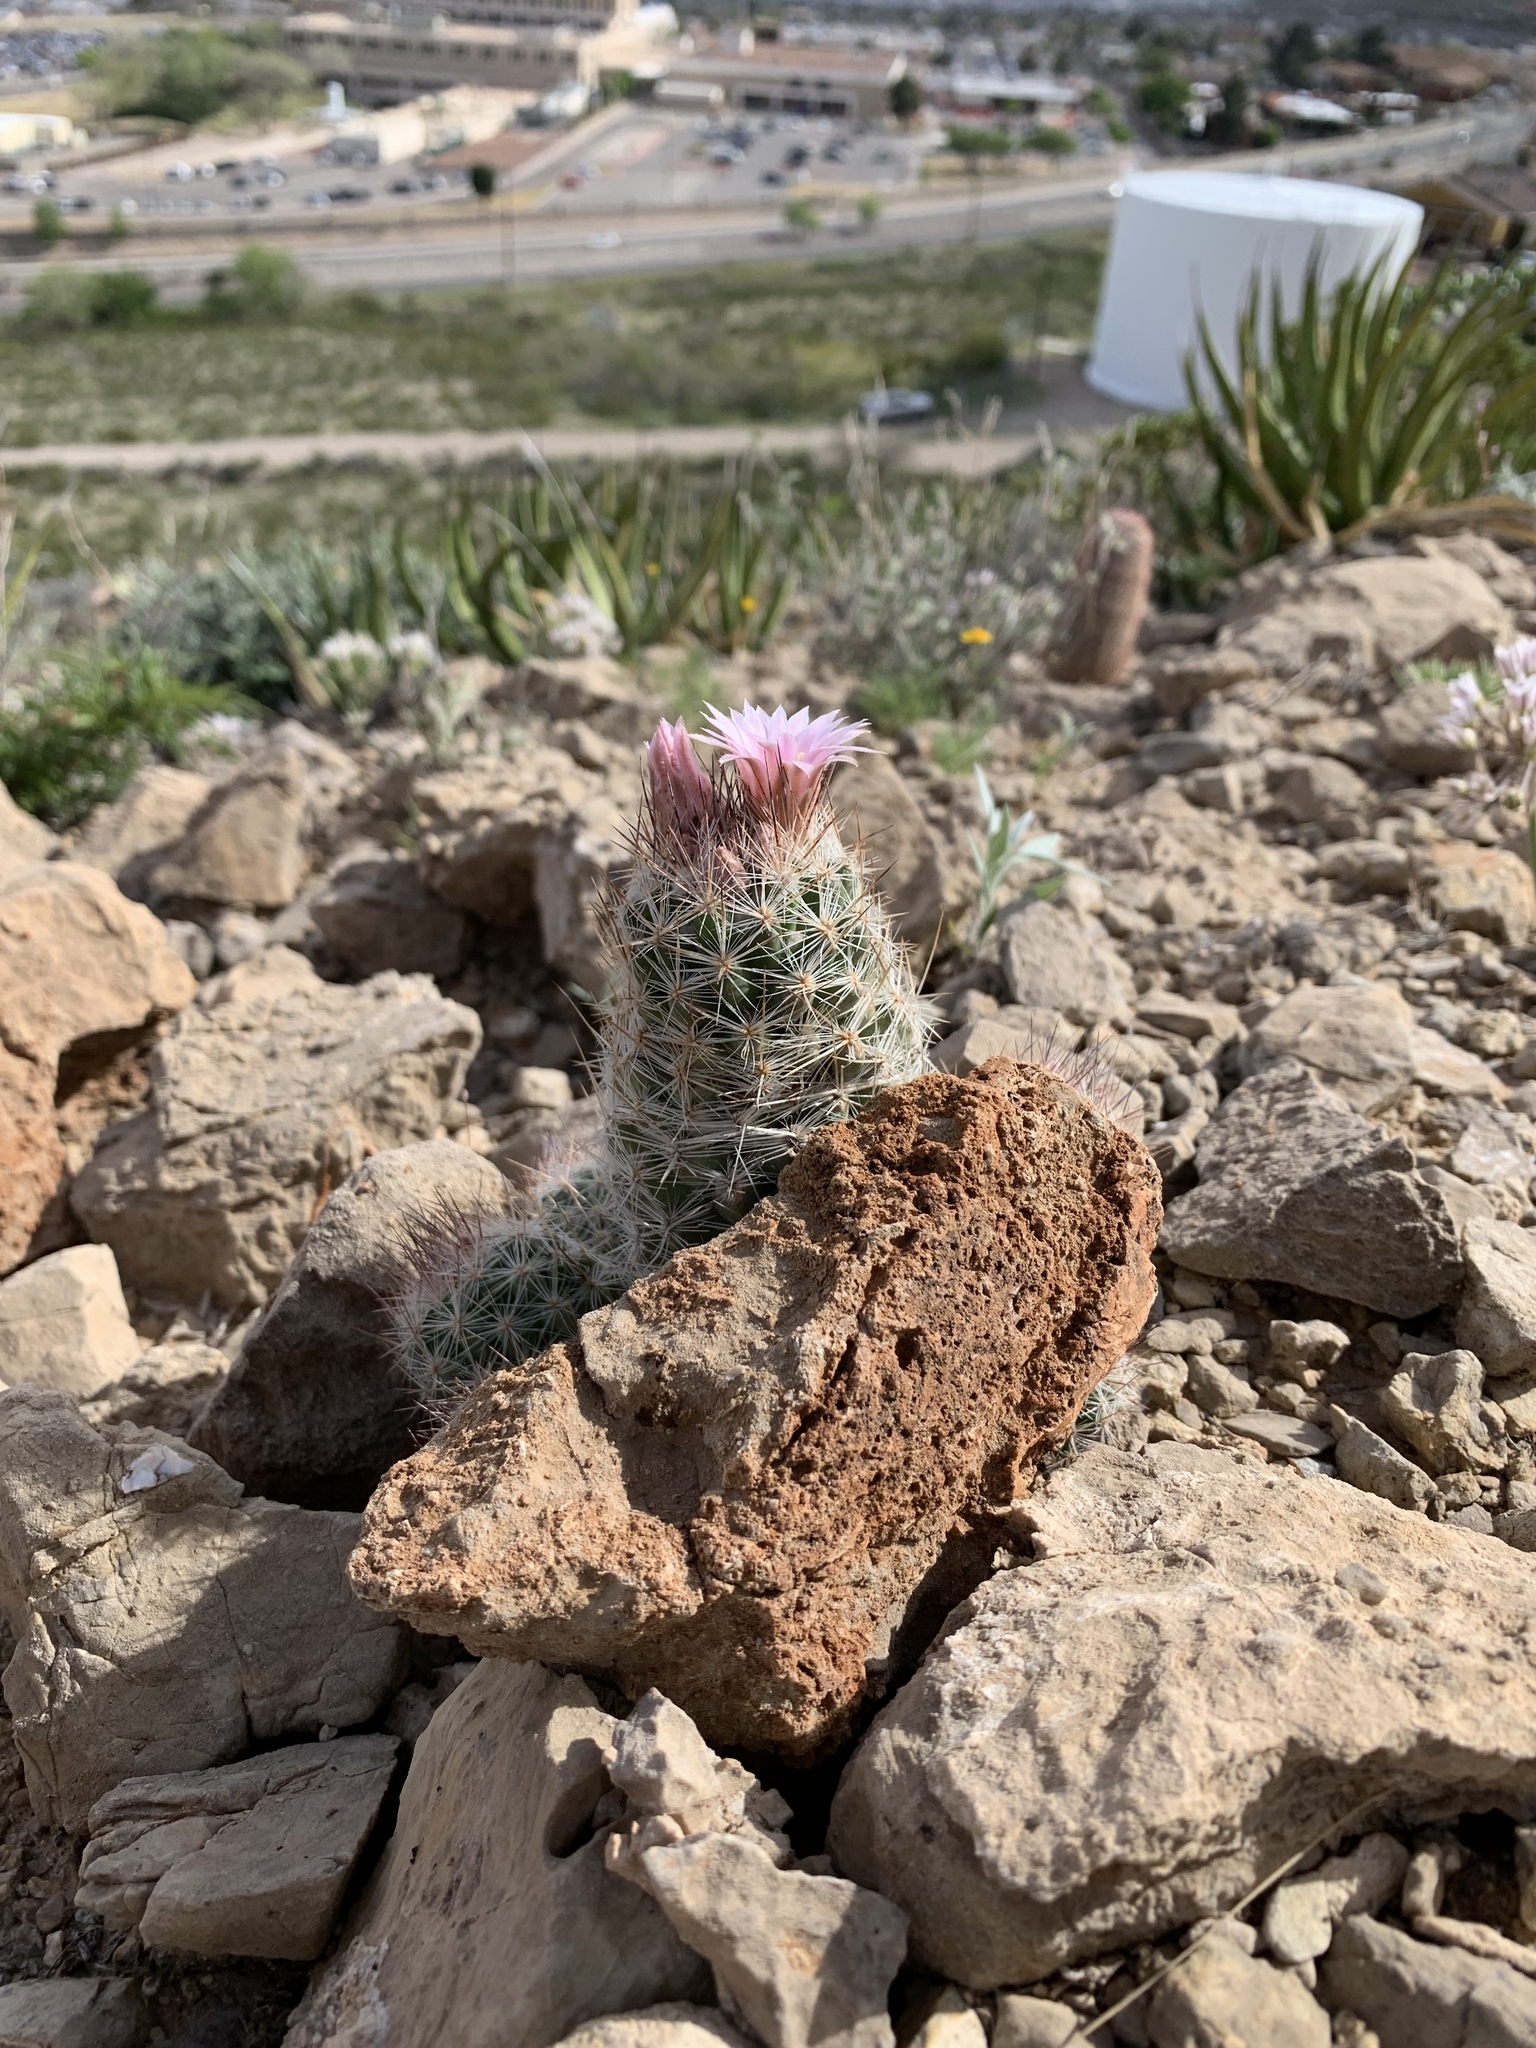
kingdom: Plantae
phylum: Tracheophyta
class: Magnoliopsida
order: Caryophyllales
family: Cactaceae
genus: Pelecyphora
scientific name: Pelecyphora tuberculosa
